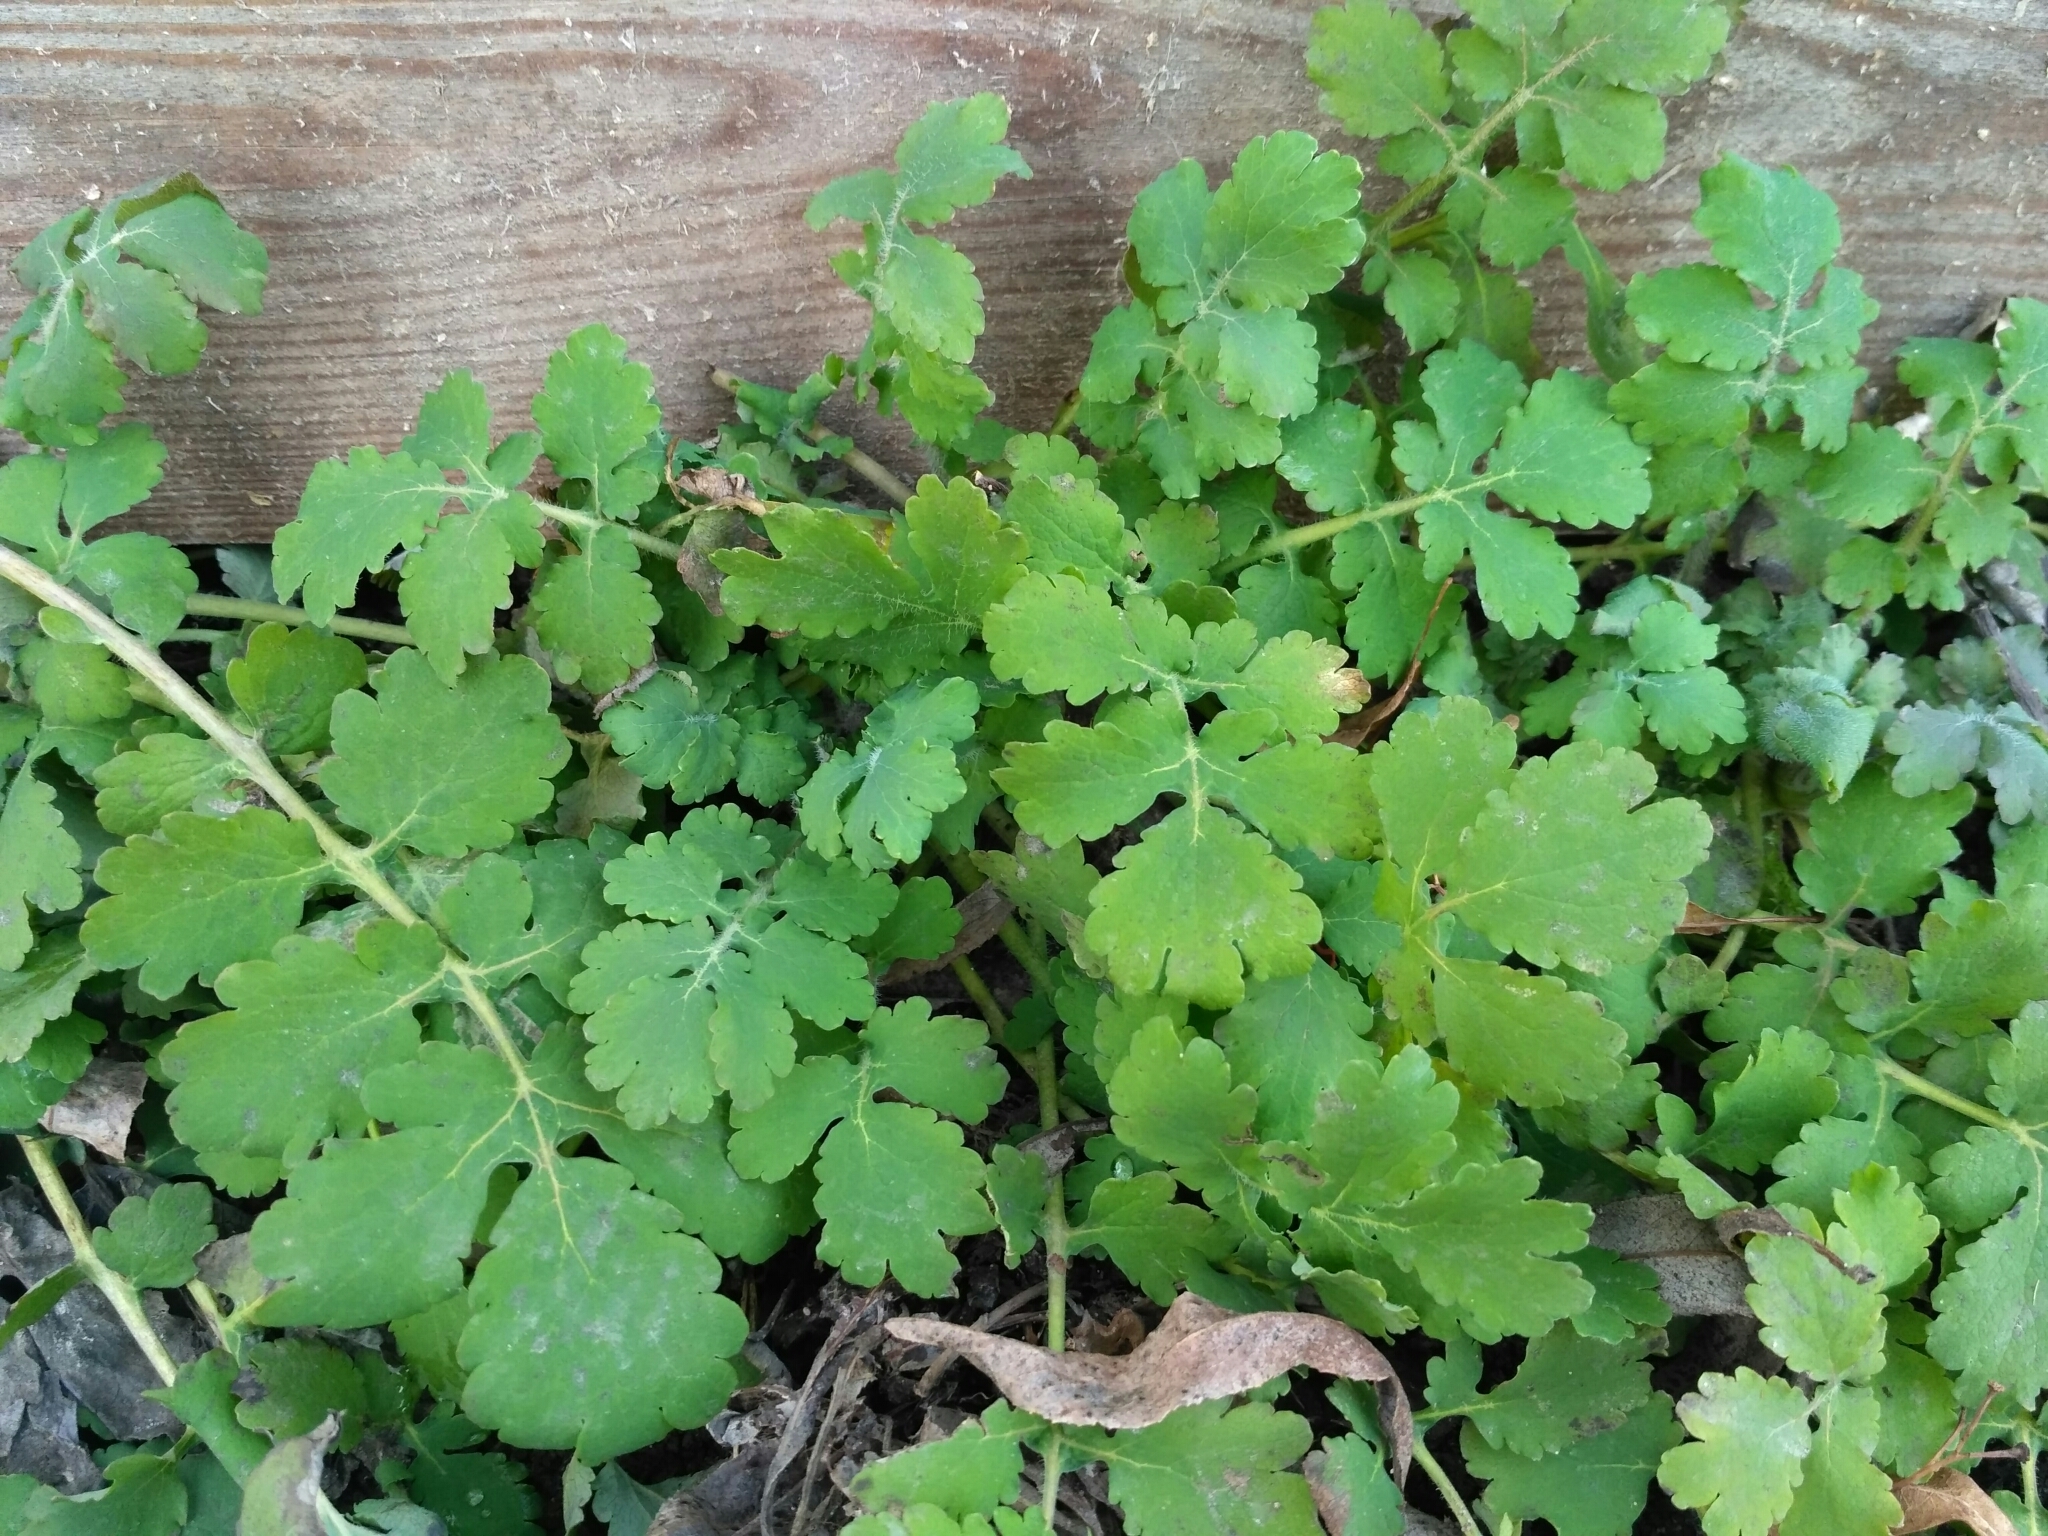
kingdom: Plantae
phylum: Tracheophyta
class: Magnoliopsida
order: Ranunculales
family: Papaveraceae
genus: Chelidonium
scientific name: Chelidonium majus
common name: Greater celandine
